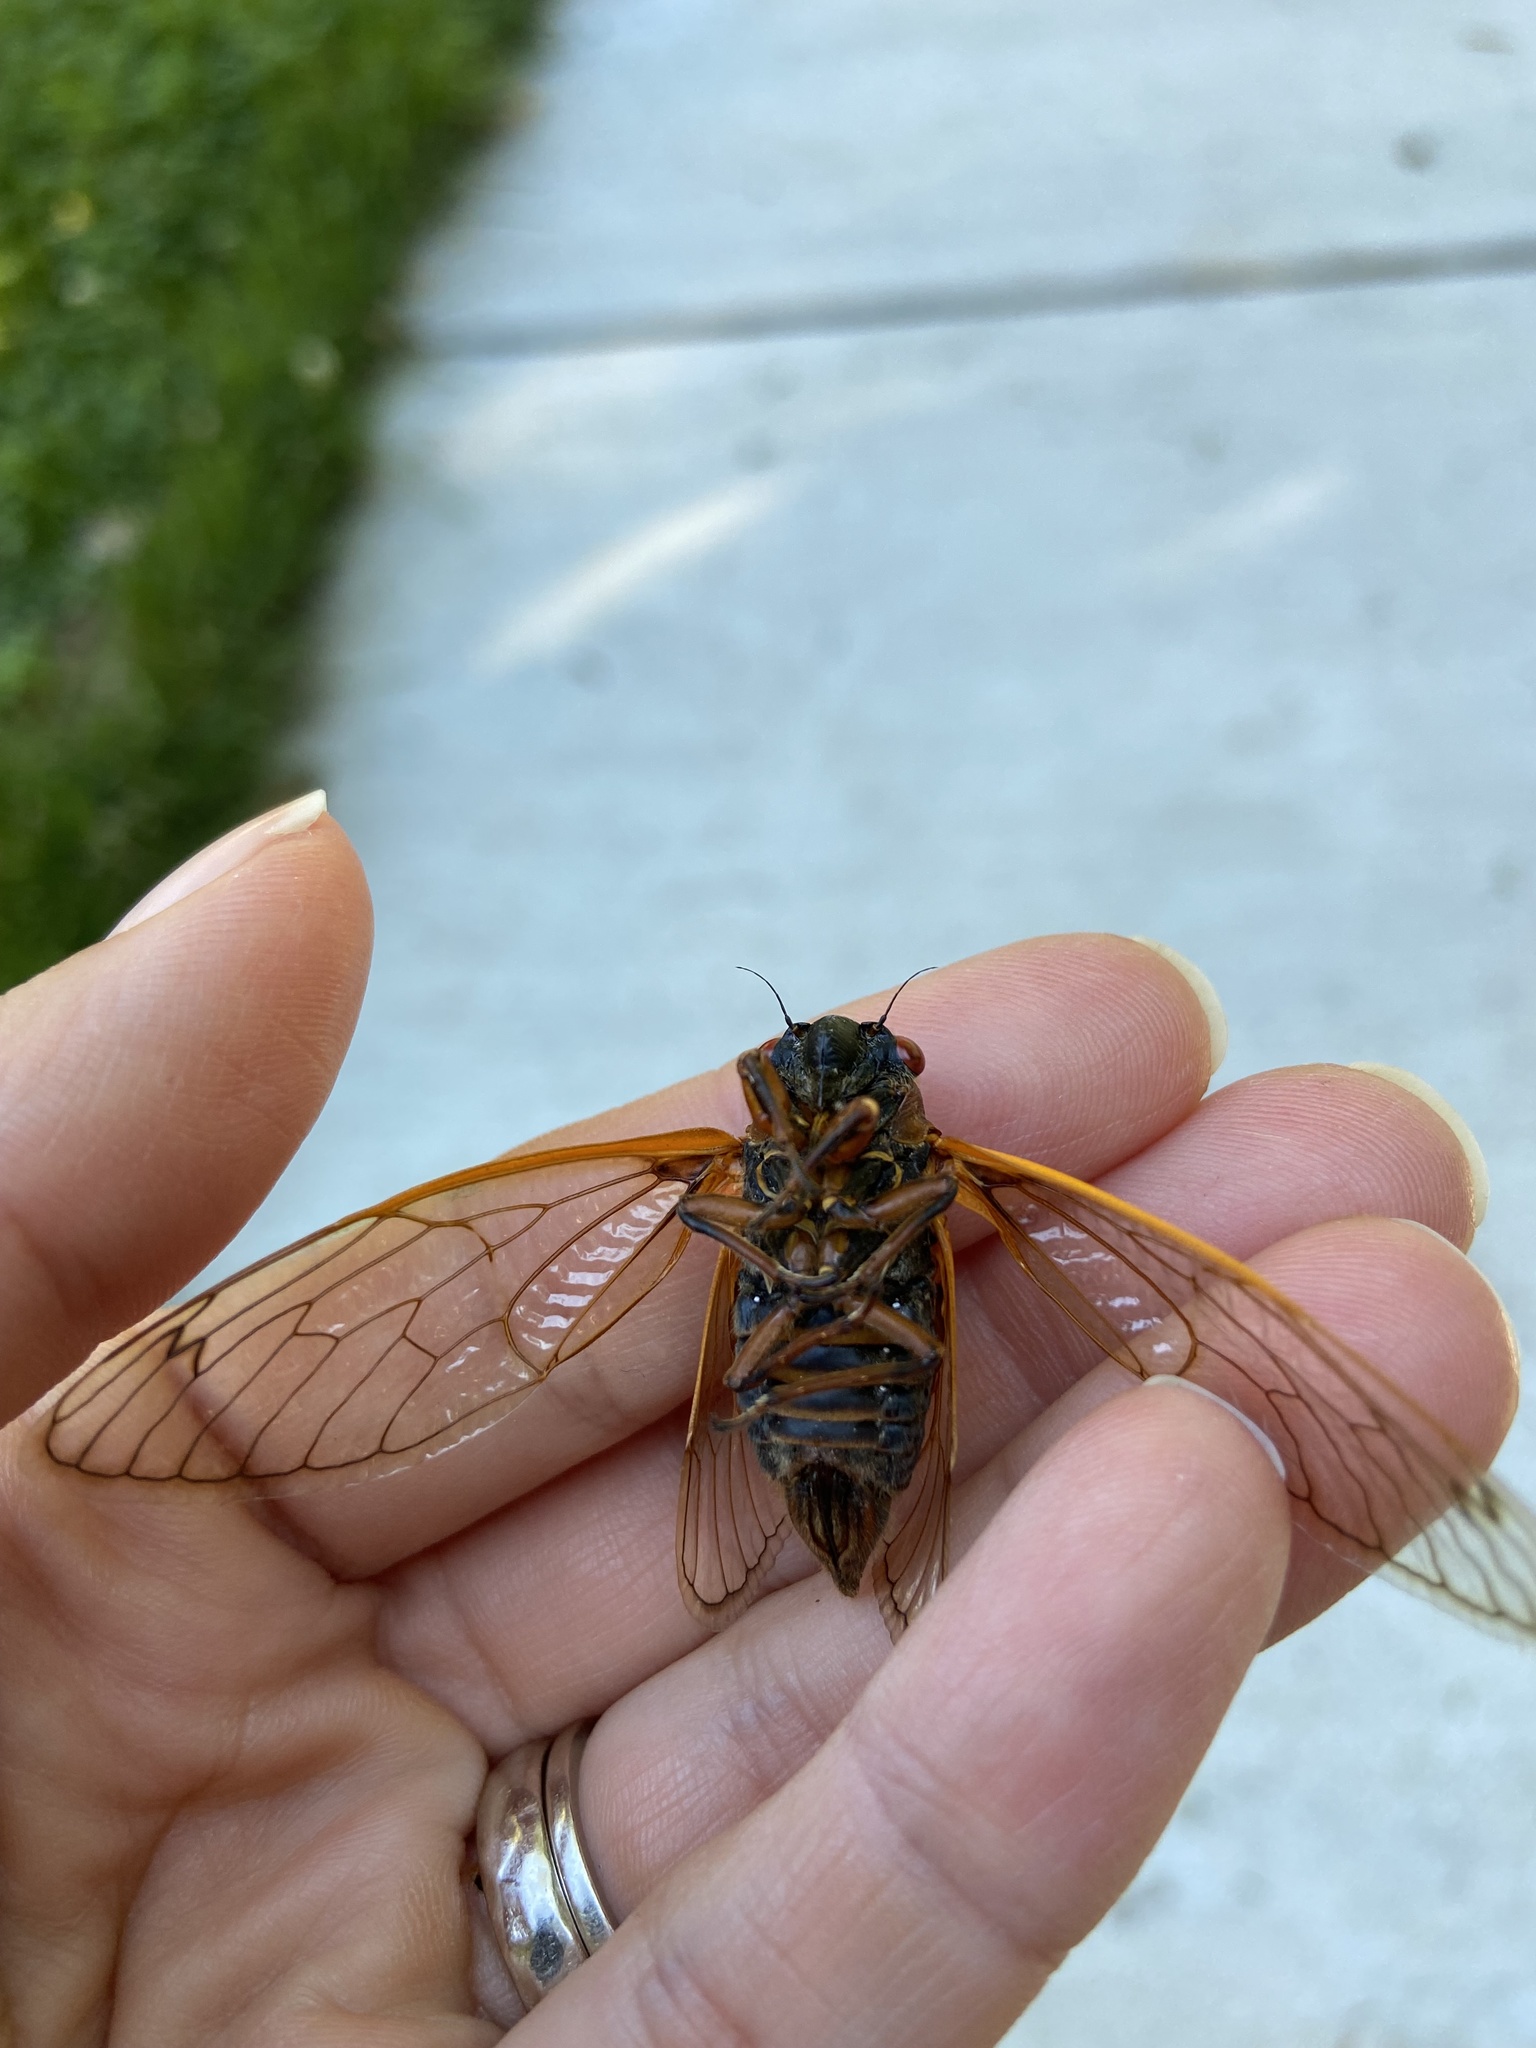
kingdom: Animalia
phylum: Arthropoda
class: Insecta
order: Hemiptera
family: Cicadidae
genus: Magicicada
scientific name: Magicicada septendecim
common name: Periodical cicada
